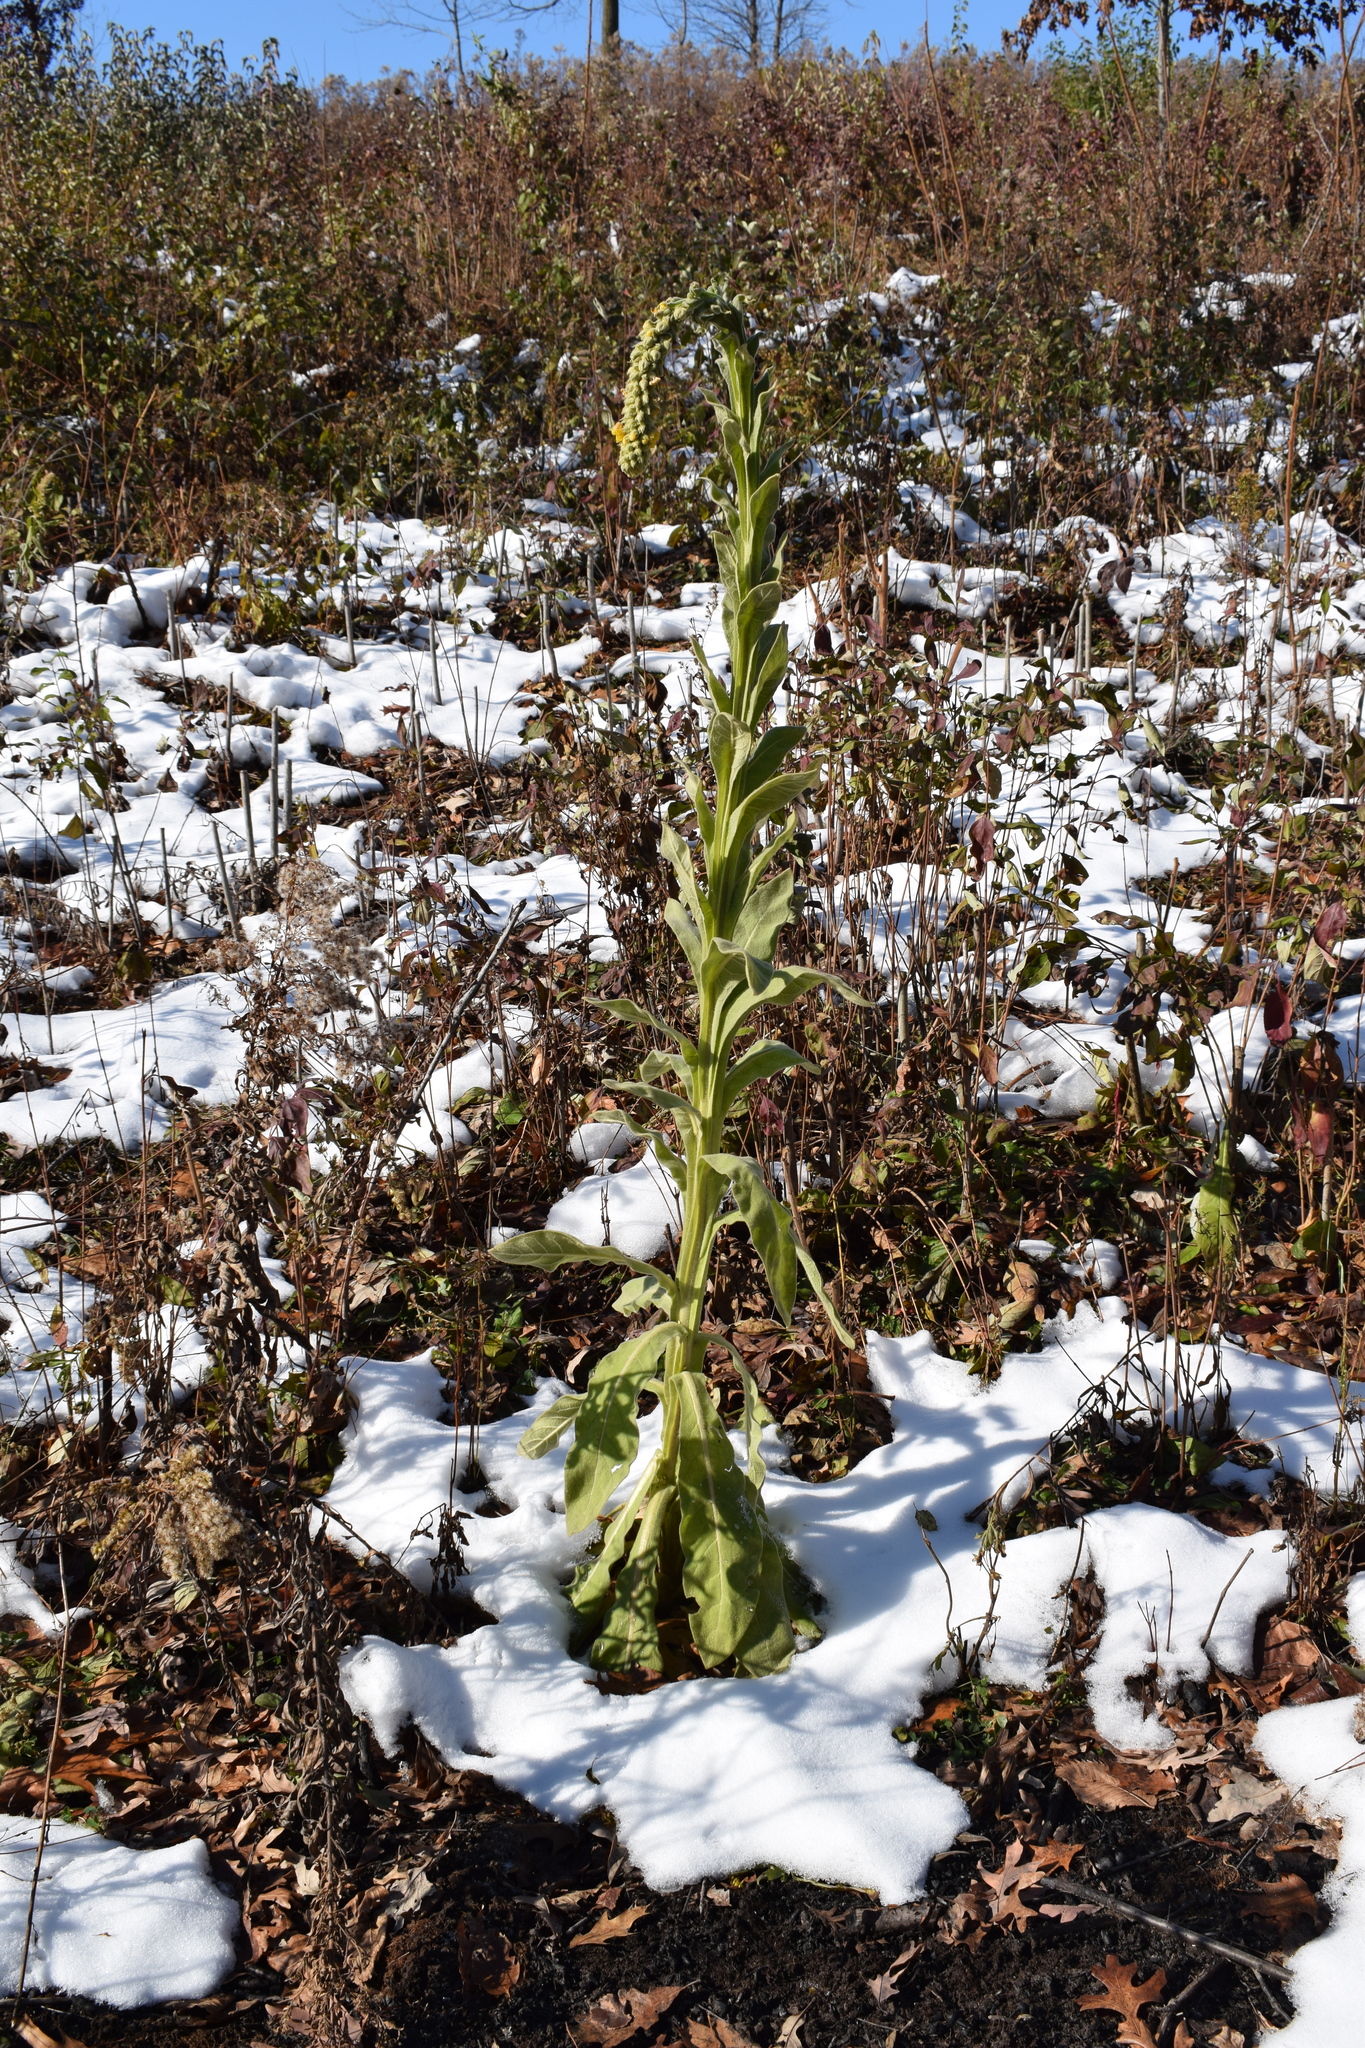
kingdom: Plantae
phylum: Tracheophyta
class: Magnoliopsida
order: Lamiales
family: Scrophulariaceae
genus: Verbascum
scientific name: Verbascum thapsus
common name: Common mullein
